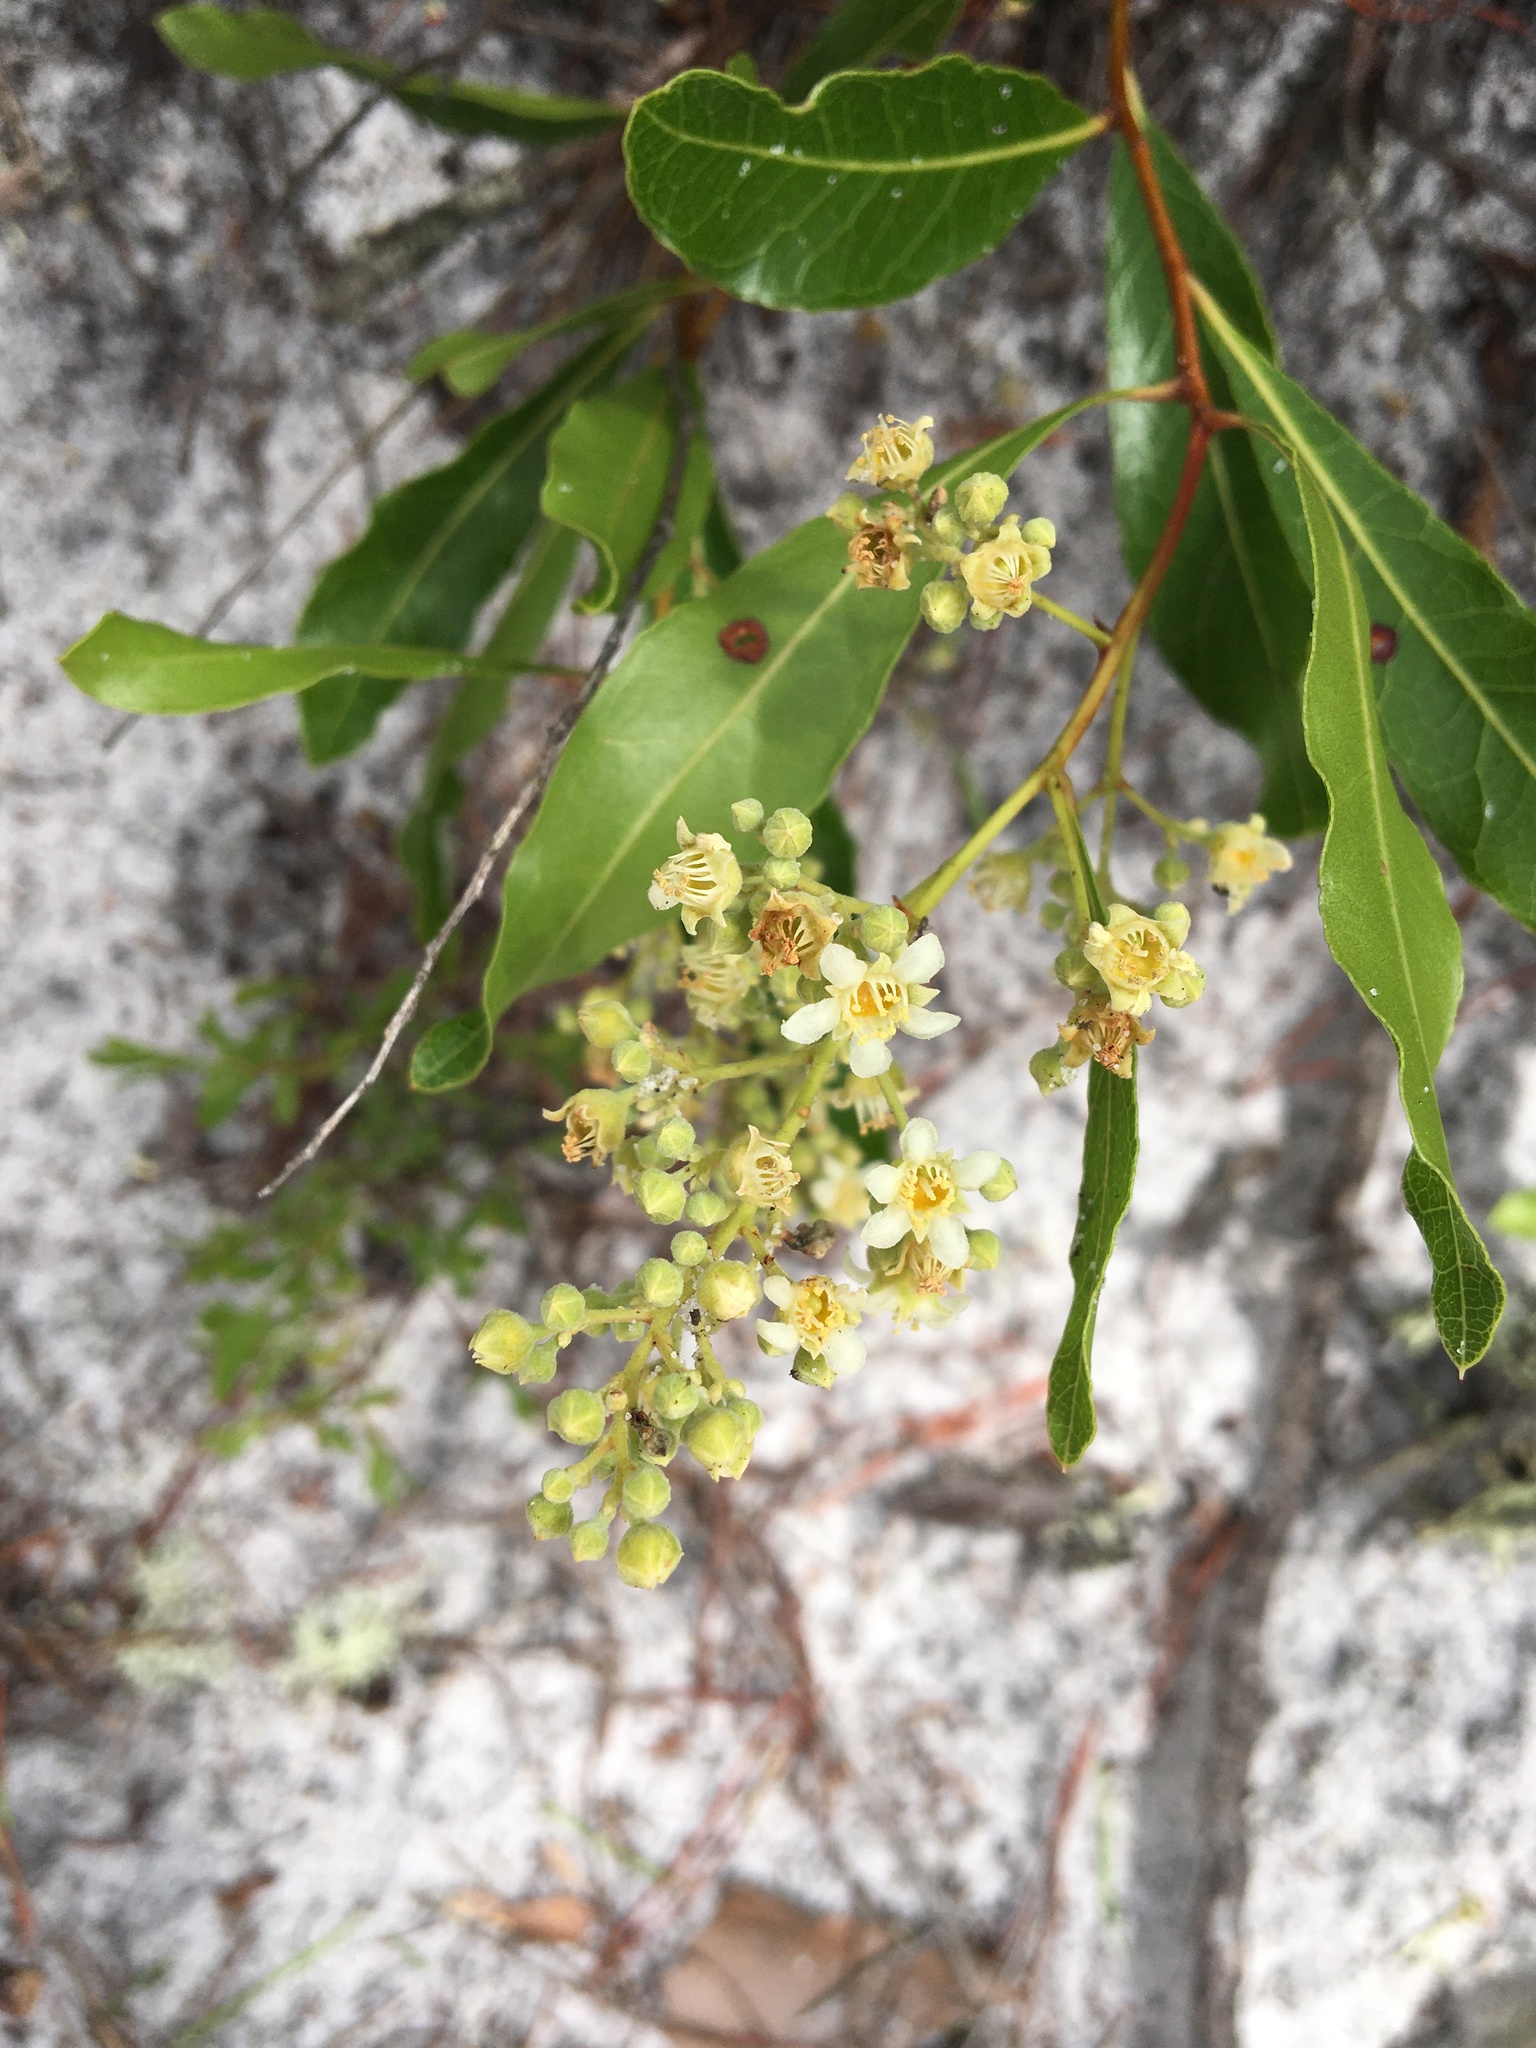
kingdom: Plantae
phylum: Tracheophyta
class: Magnoliopsida
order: Malpighiales
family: Chrysobalanaceae
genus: Geobalanus
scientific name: Geobalanus oblongifolius
